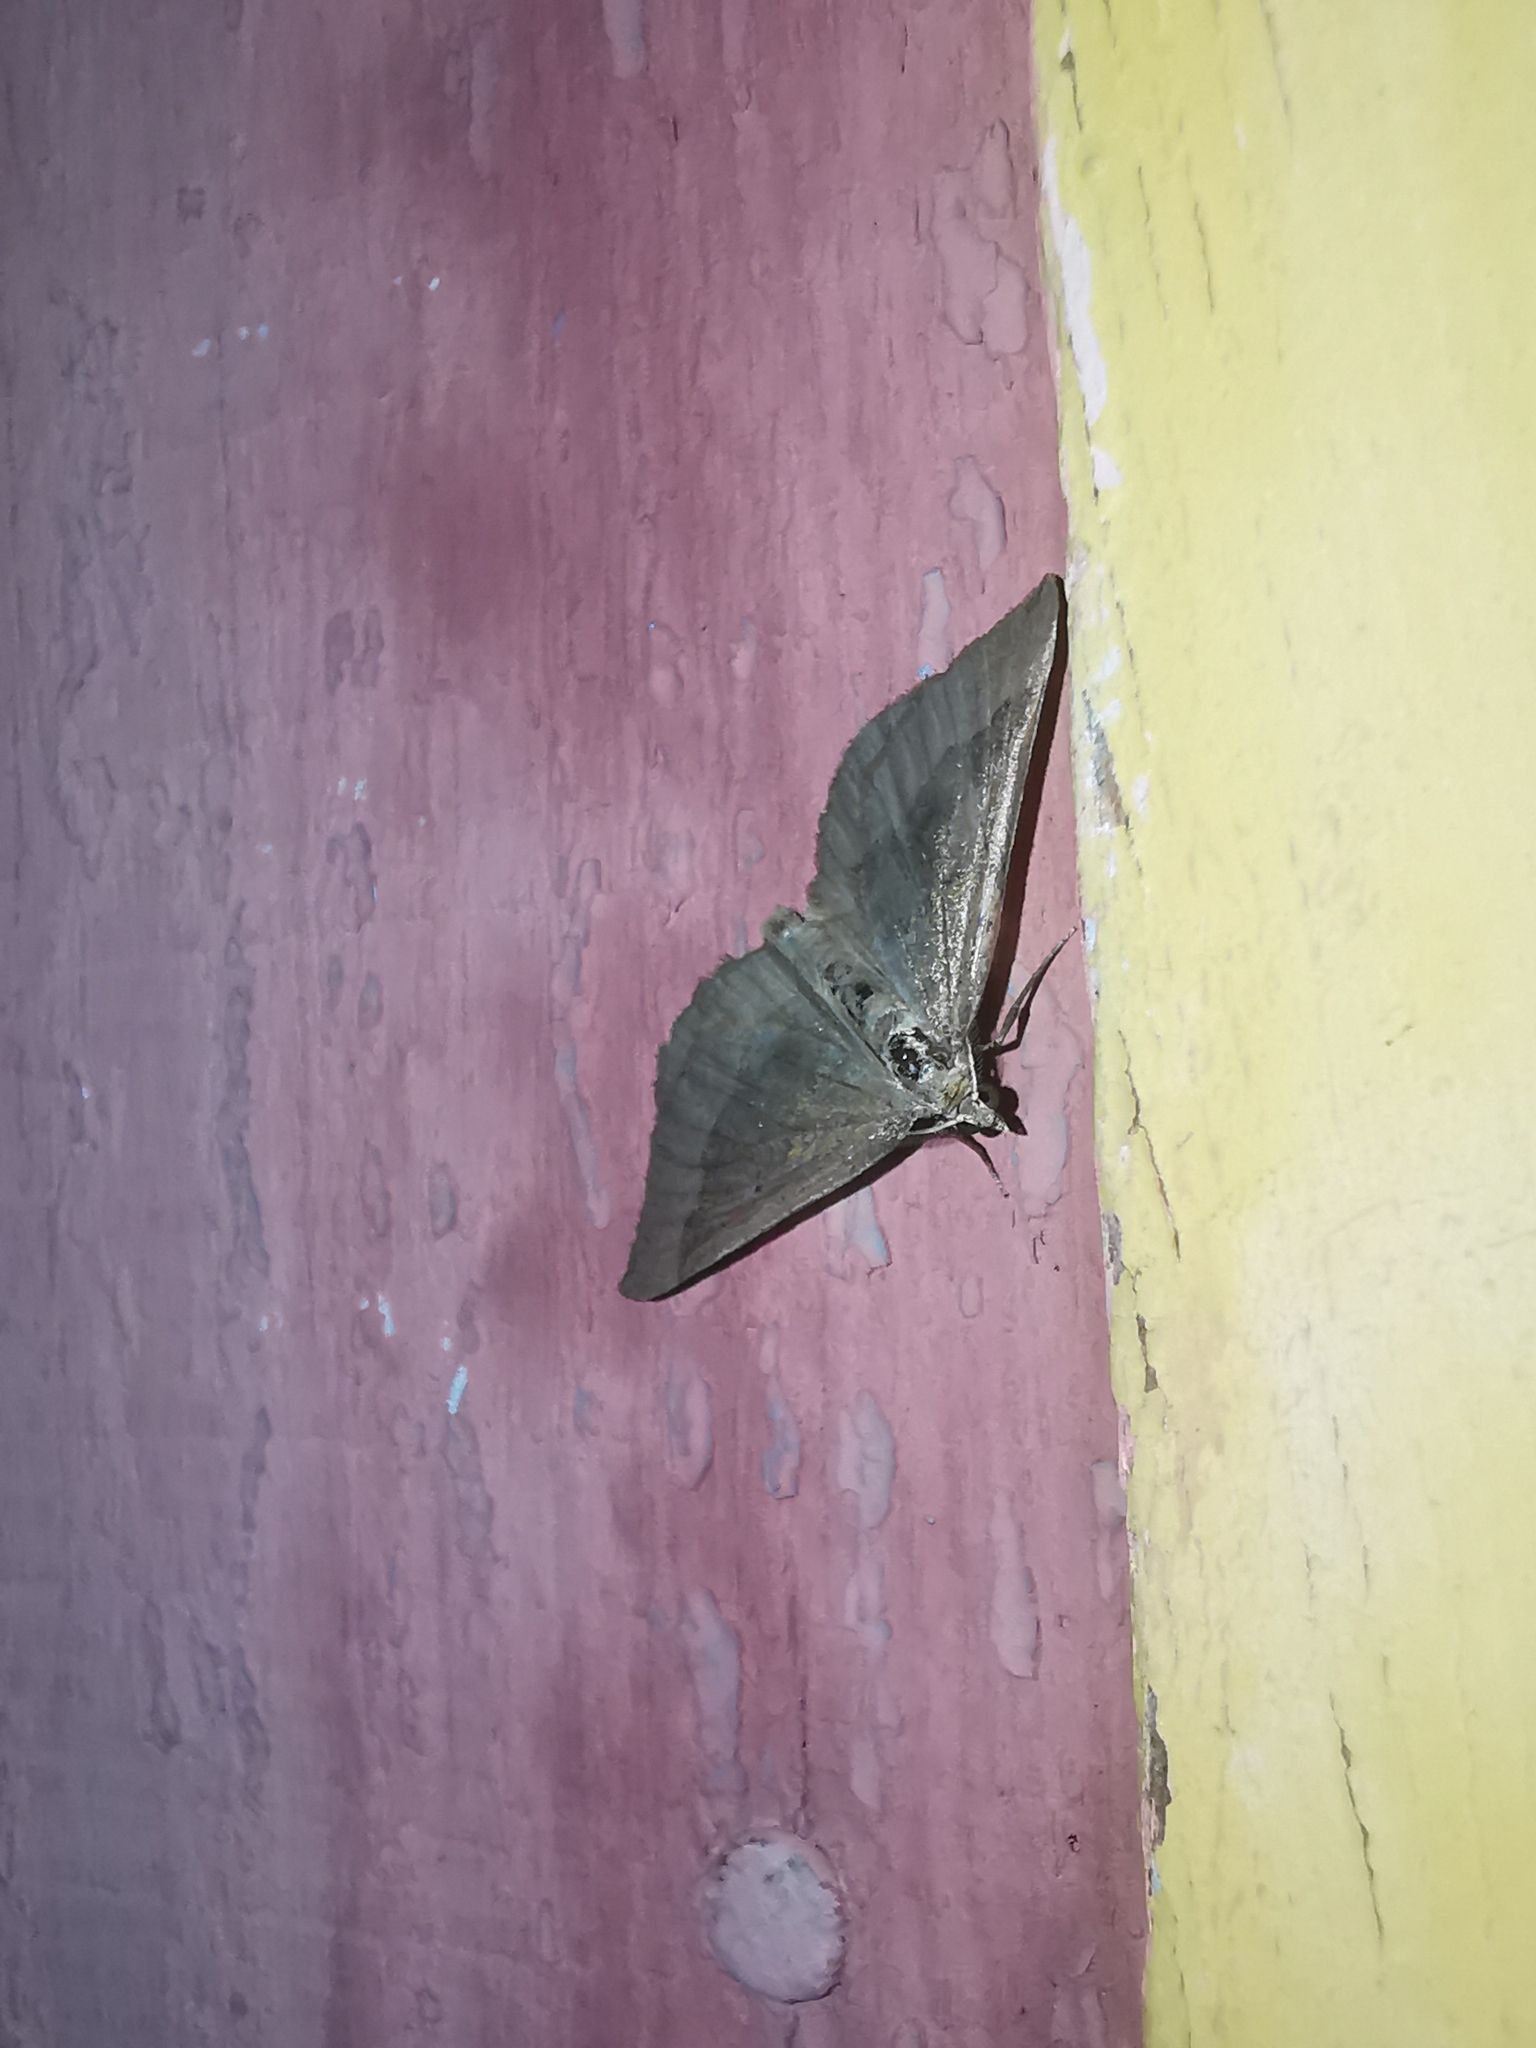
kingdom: Animalia
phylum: Arthropoda
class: Insecta
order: Lepidoptera
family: Geometridae
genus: Scotopteryx
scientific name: Scotopteryx chenopodiata
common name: Shaded broad-bar
